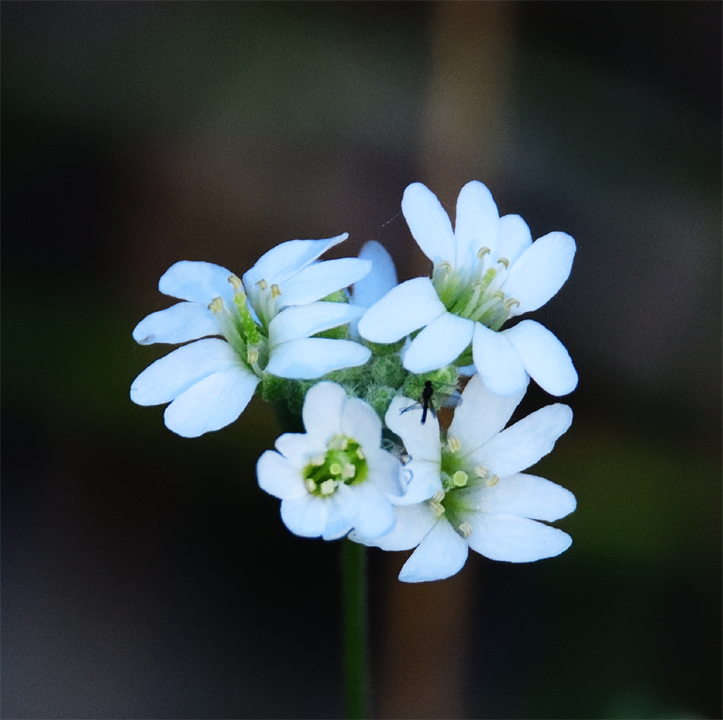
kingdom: Plantae
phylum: Tracheophyta
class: Magnoliopsida
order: Brassicales
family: Brassicaceae
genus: Berteroa
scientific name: Berteroa incana
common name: Hoary alison
